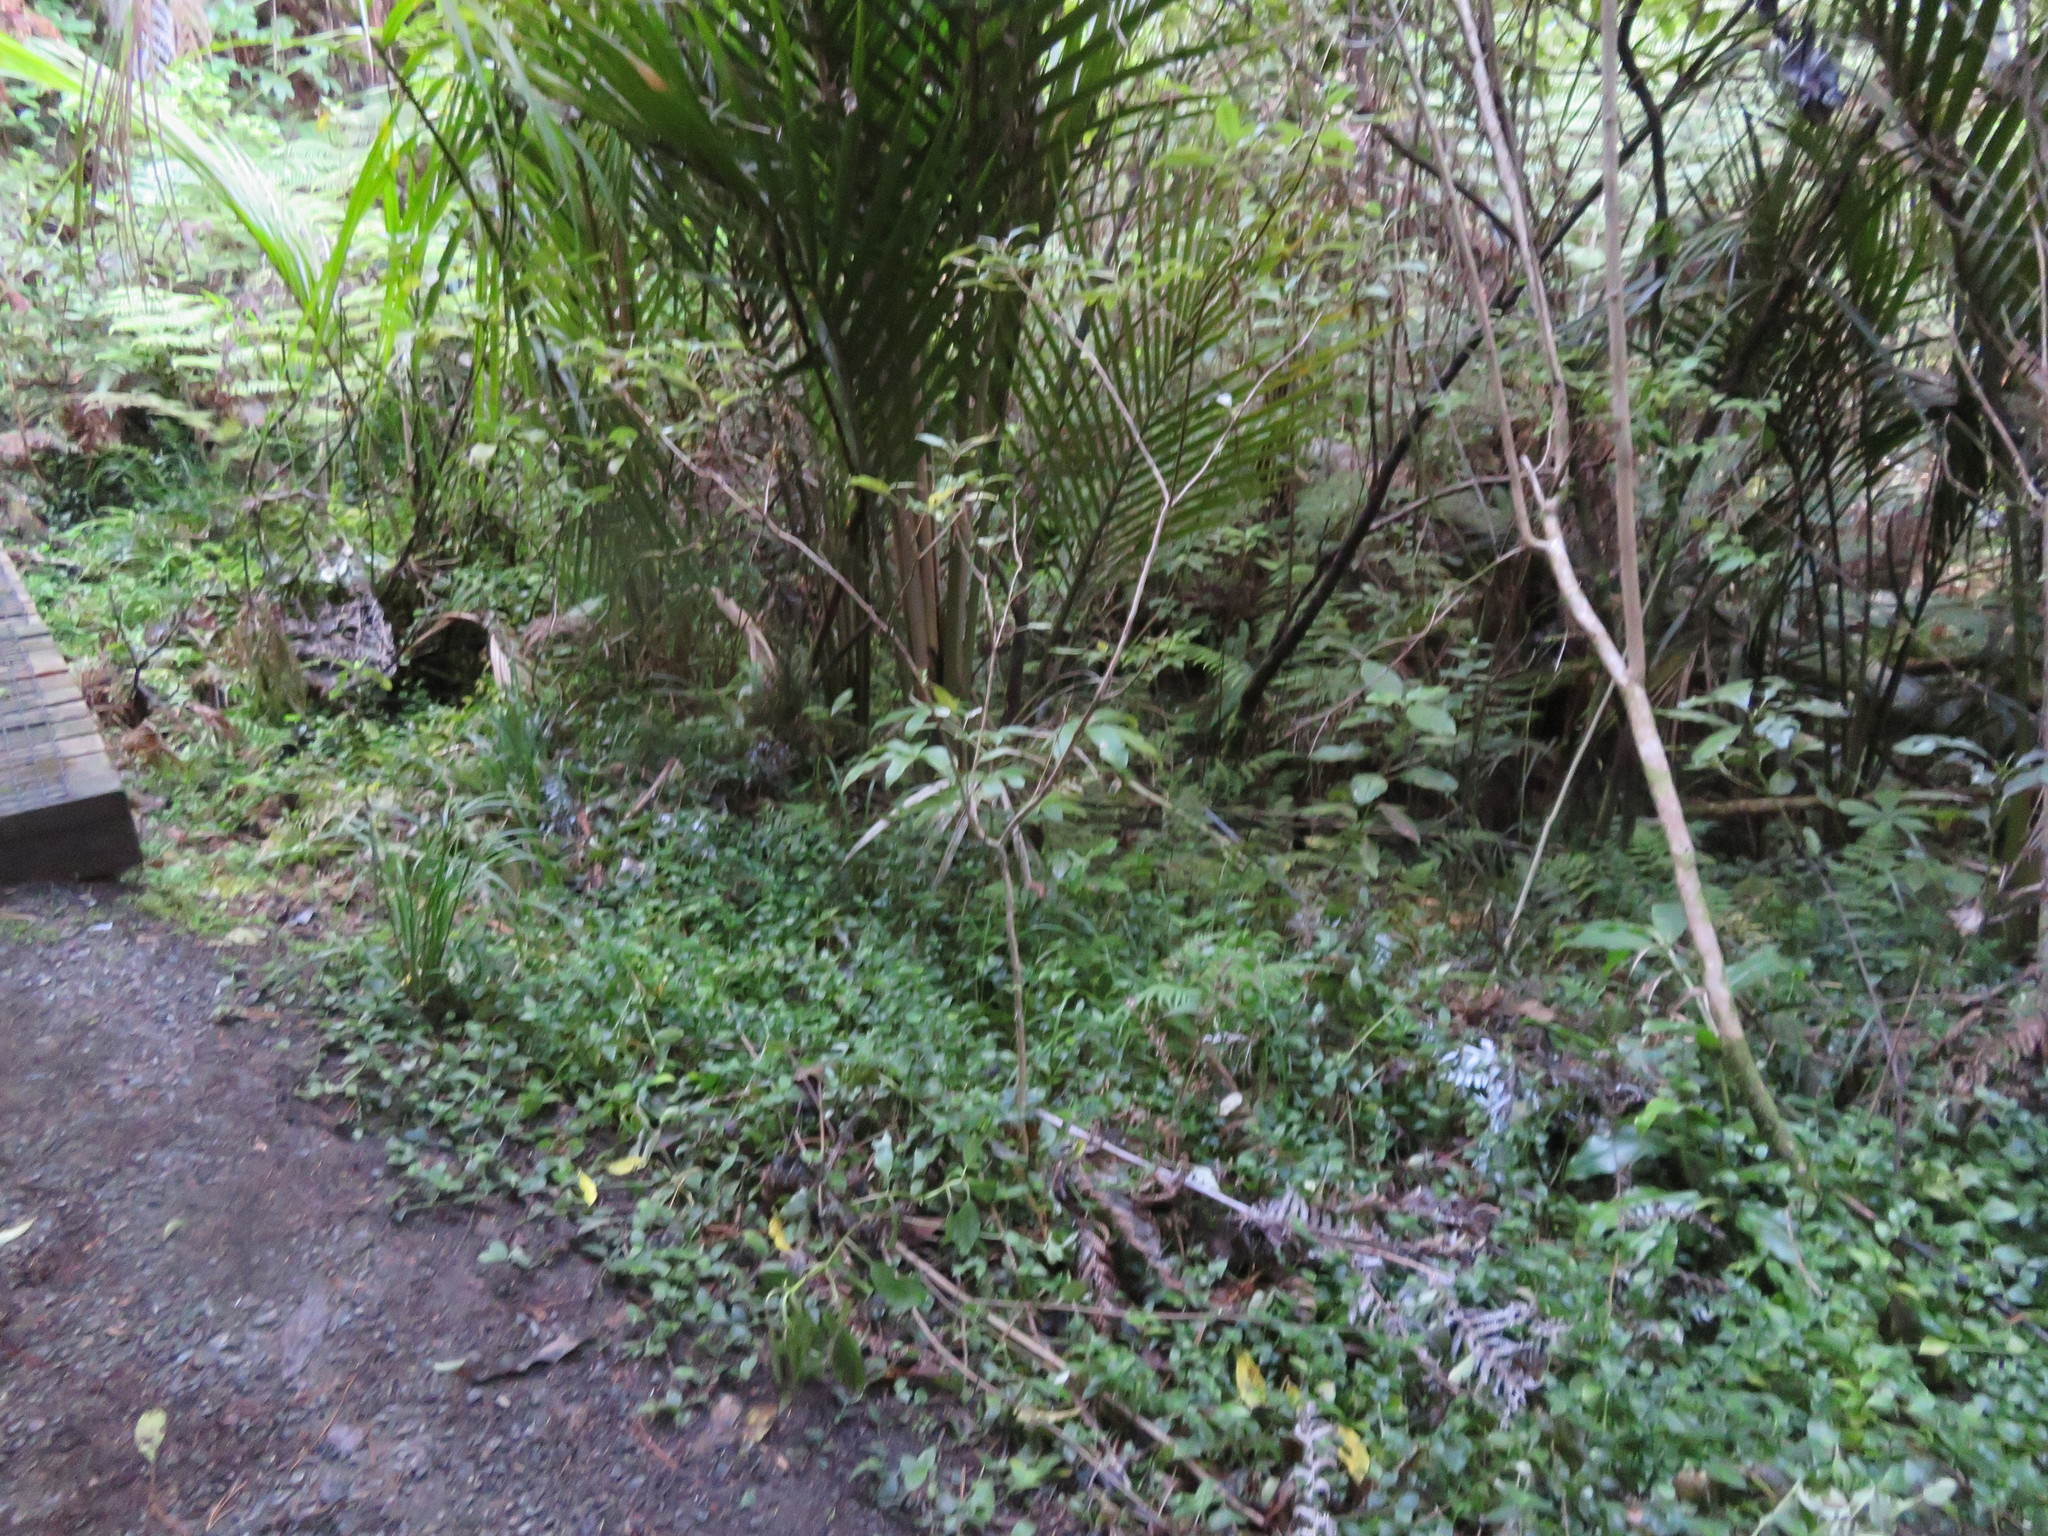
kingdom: Plantae
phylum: Tracheophyta
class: Liliopsida
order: Arecales
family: Arecaceae
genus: Rhopalostylis
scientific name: Rhopalostylis sapida
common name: Feather-duster palm
